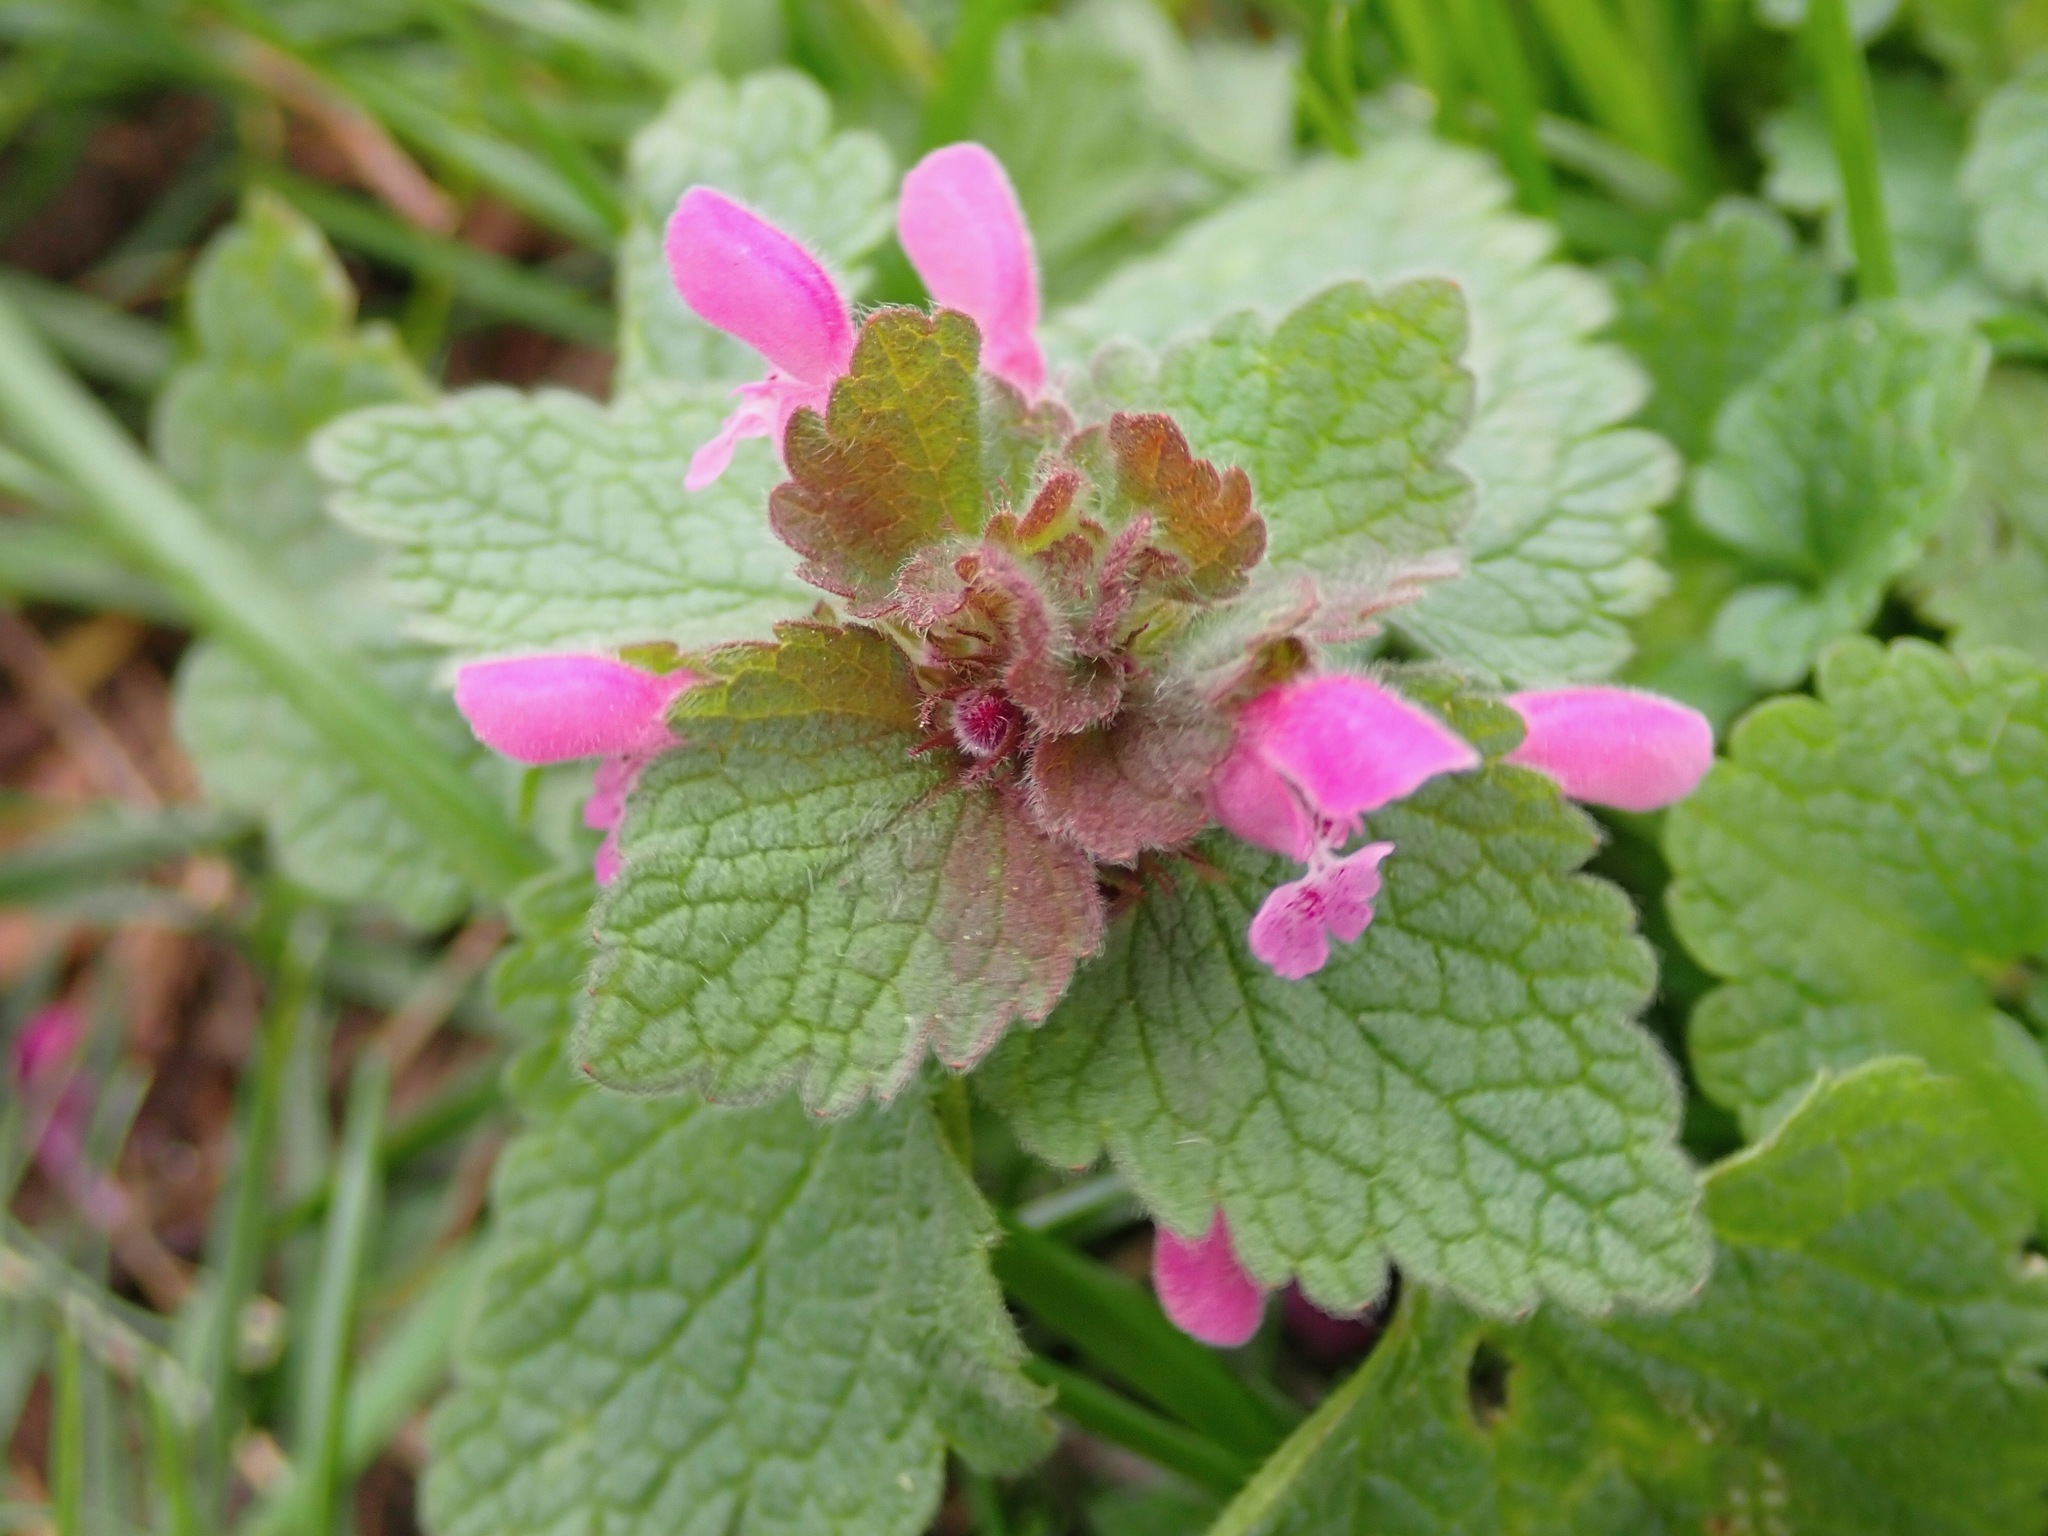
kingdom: Plantae
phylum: Tracheophyta
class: Magnoliopsida
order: Lamiales
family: Lamiaceae
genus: Lamium
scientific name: Lamium purpureum
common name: Red dead-nettle
